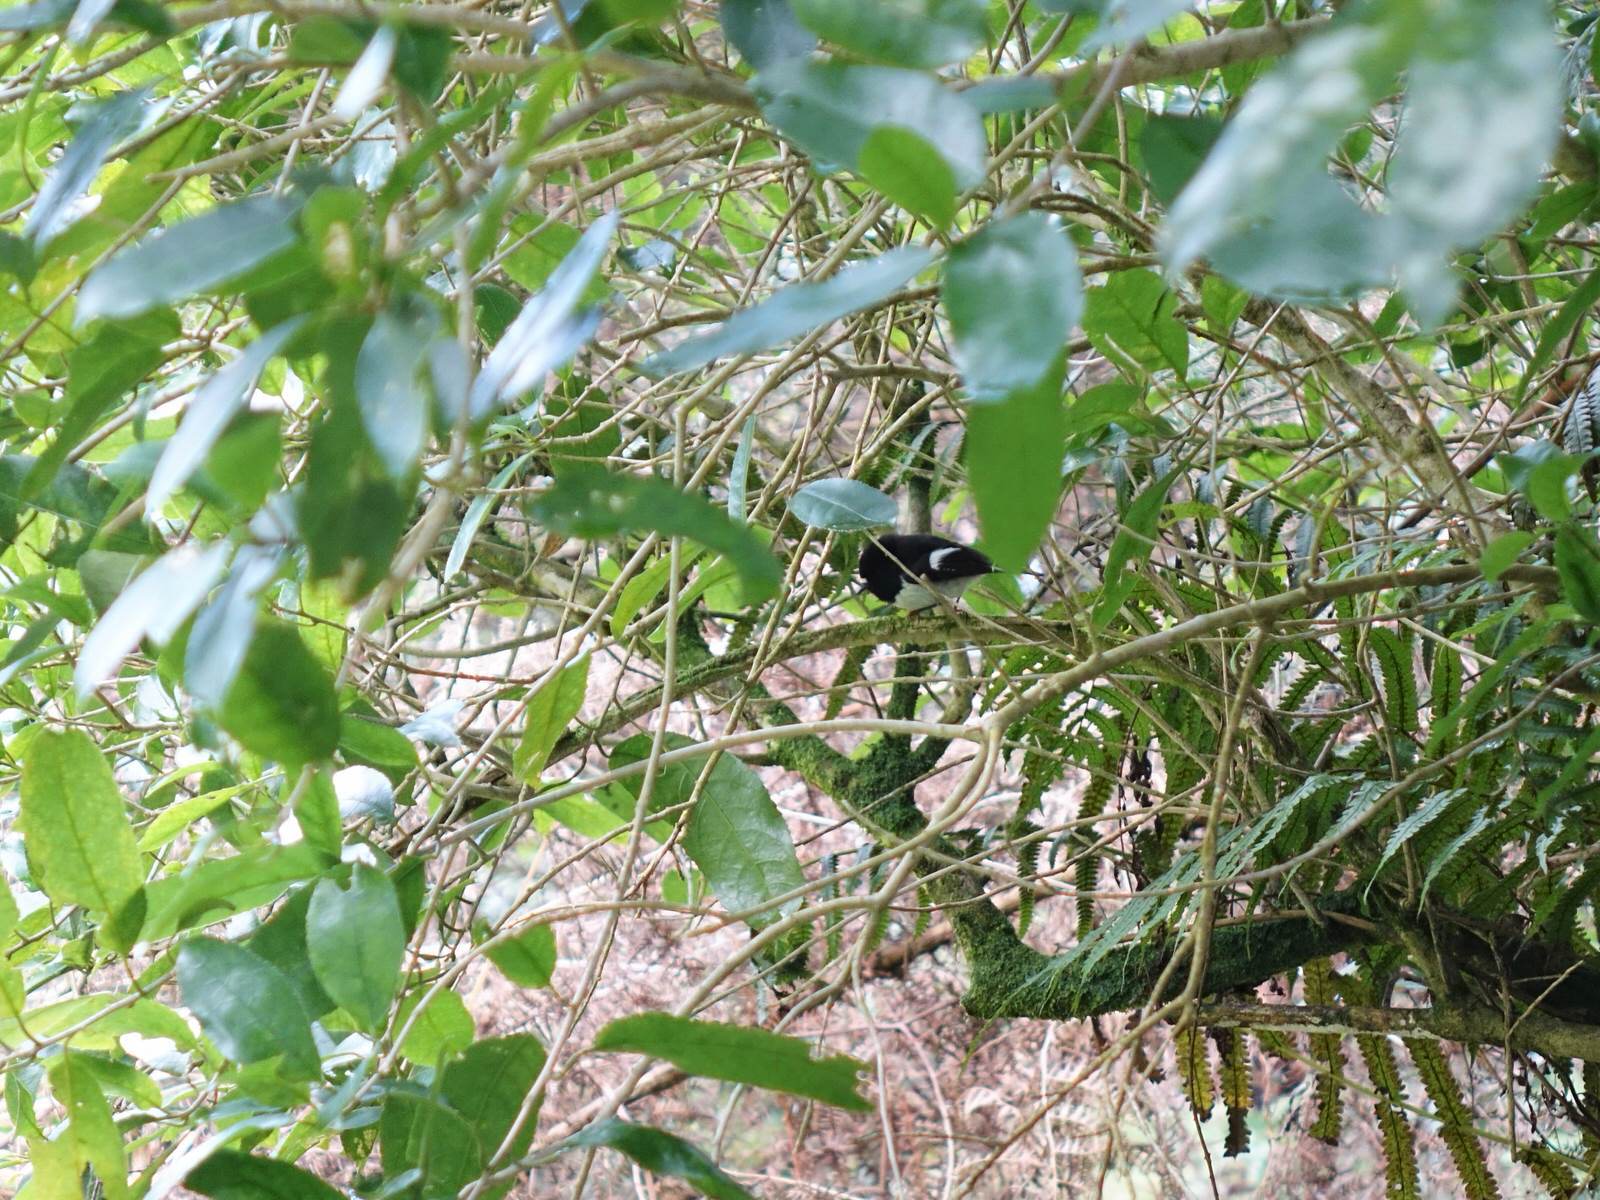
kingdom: Animalia
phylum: Chordata
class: Aves
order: Passeriformes
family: Petroicidae
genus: Petroica
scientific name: Petroica macrocephala
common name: Tomtit
